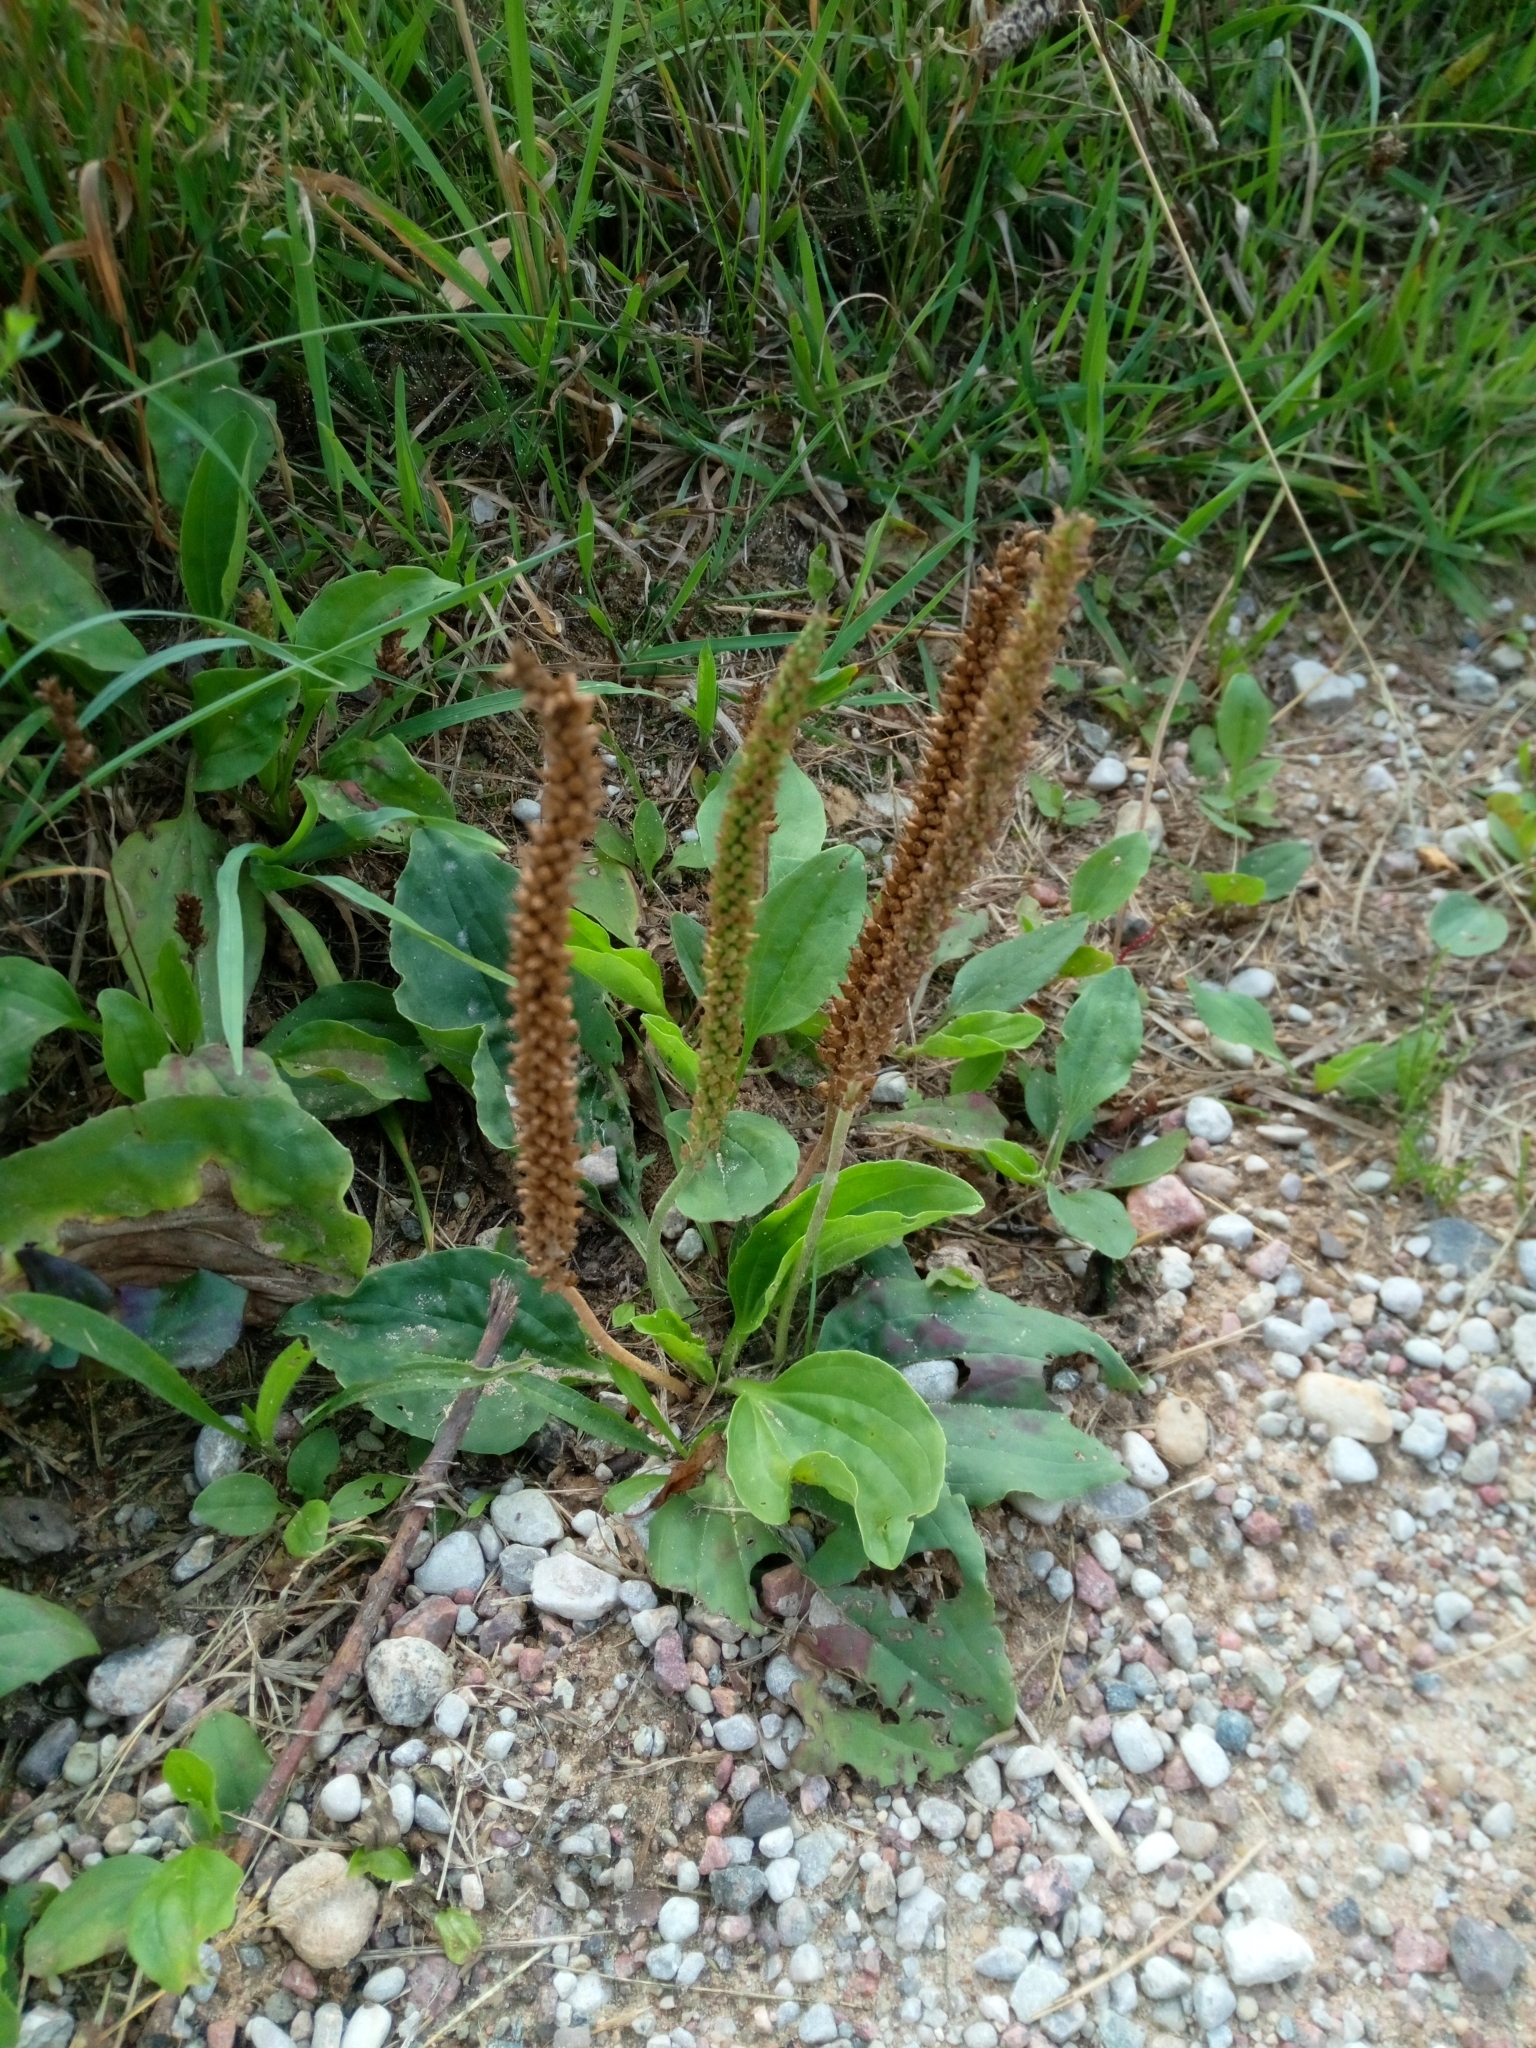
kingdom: Plantae
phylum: Tracheophyta
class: Magnoliopsida
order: Lamiales
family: Plantaginaceae
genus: Plantago
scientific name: Plantago major
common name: Common plantain
